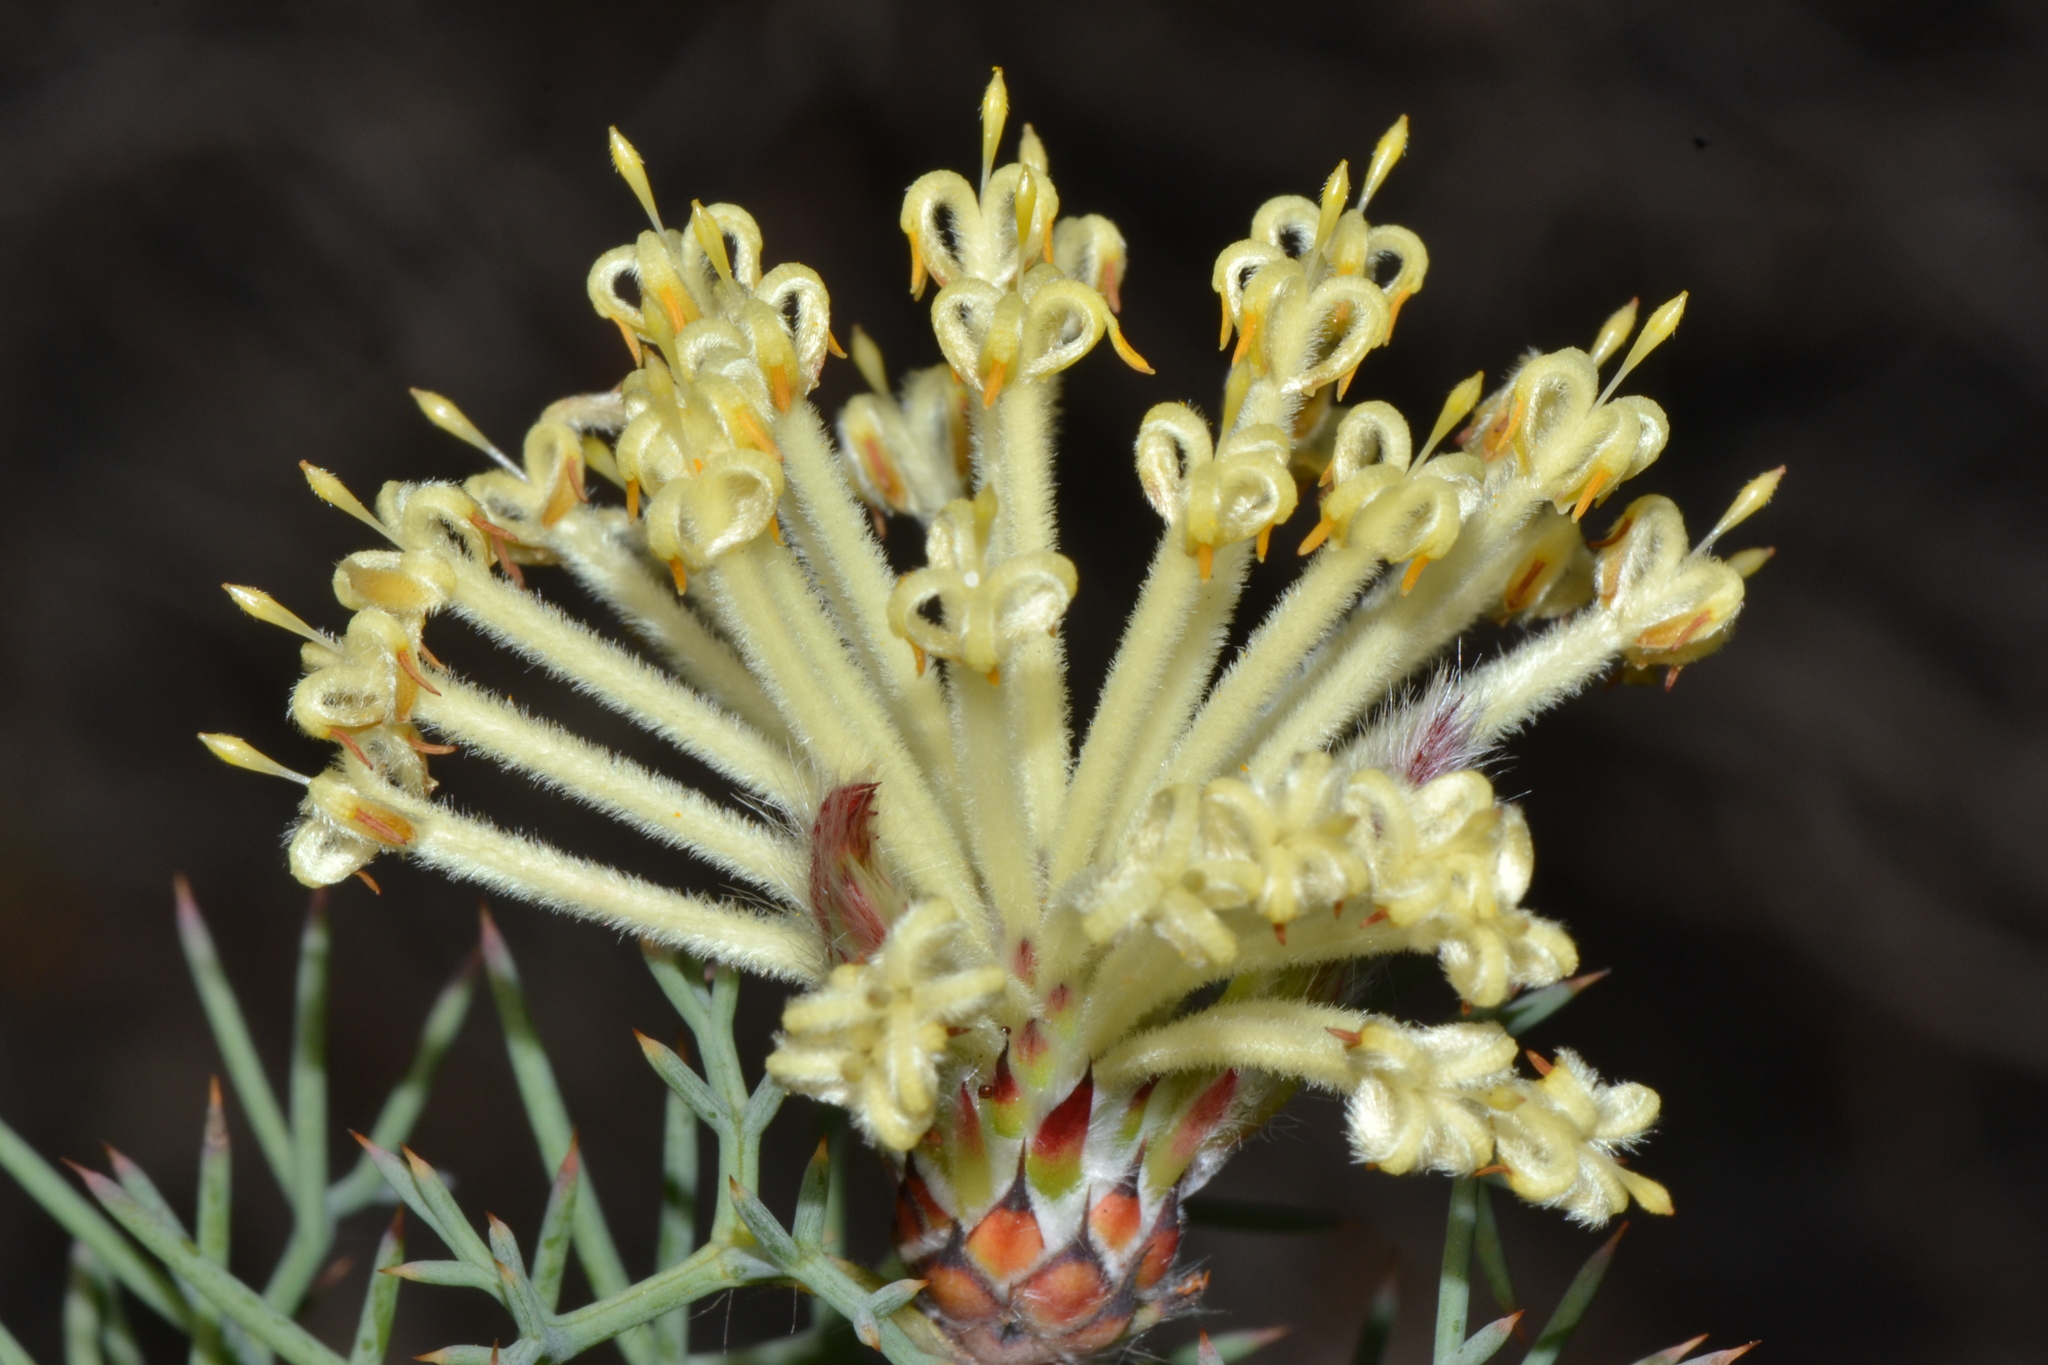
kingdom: Plantae
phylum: Tracheophyta
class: Magnoliopsida
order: Proteales
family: Proteaceae
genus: Petrophile
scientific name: Petrophile divaricata
